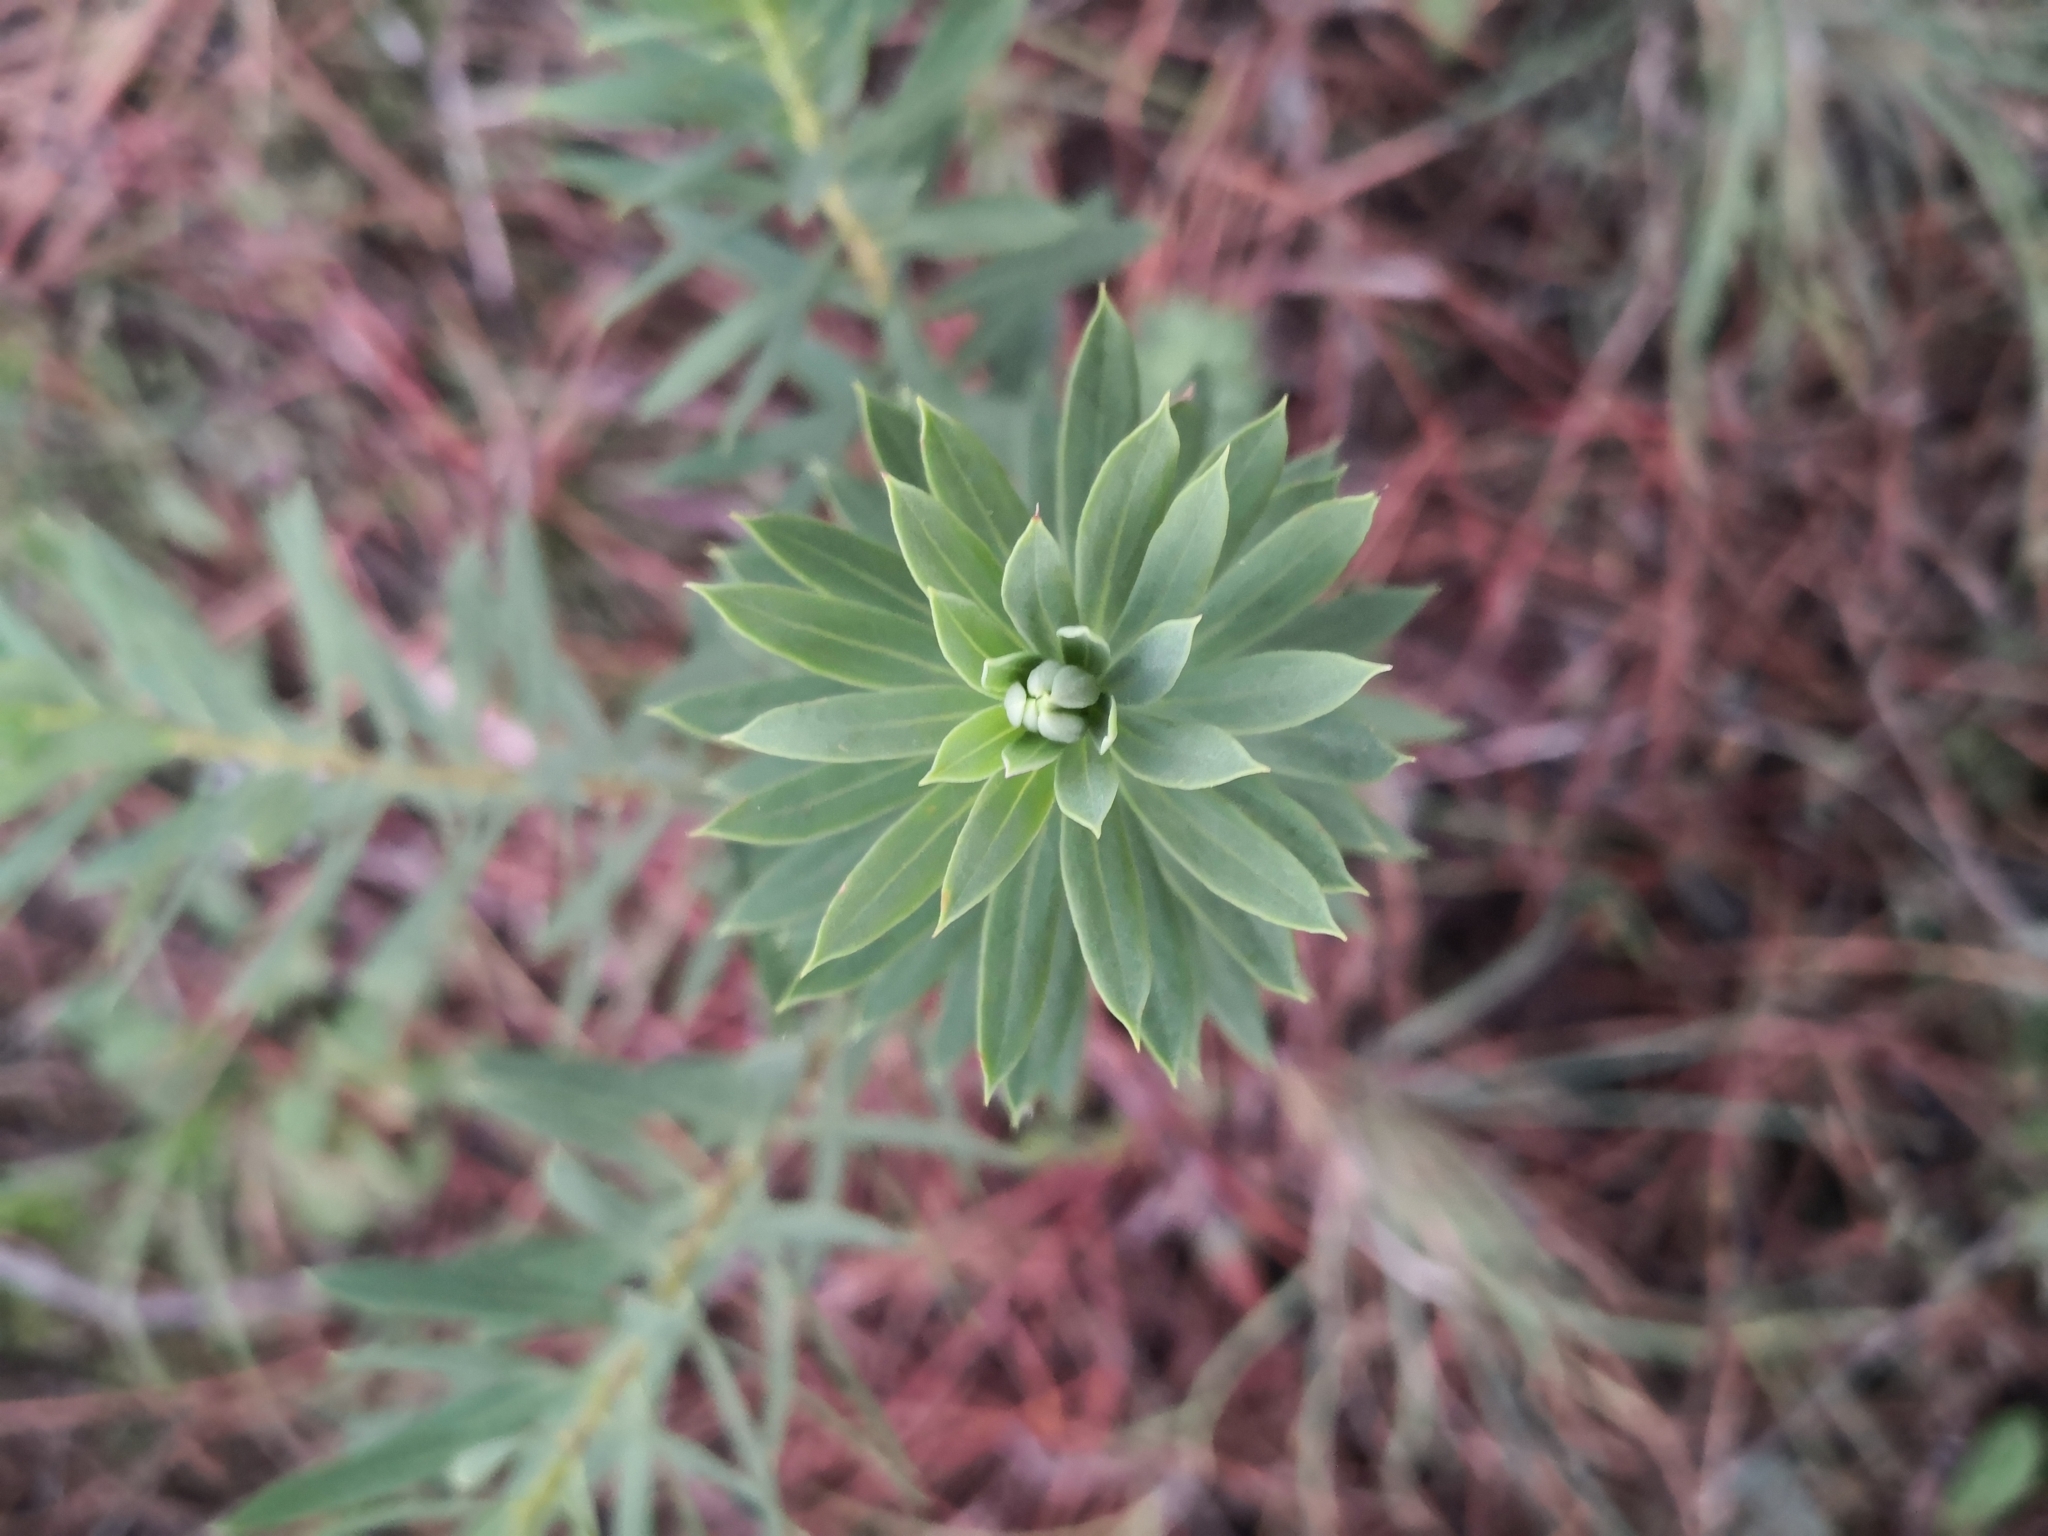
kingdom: Plantae
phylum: Tracheophyta
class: Magnoliopsida
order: Malvales
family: Thymelaeaceae
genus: Daphne
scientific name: Daphne gnidium
